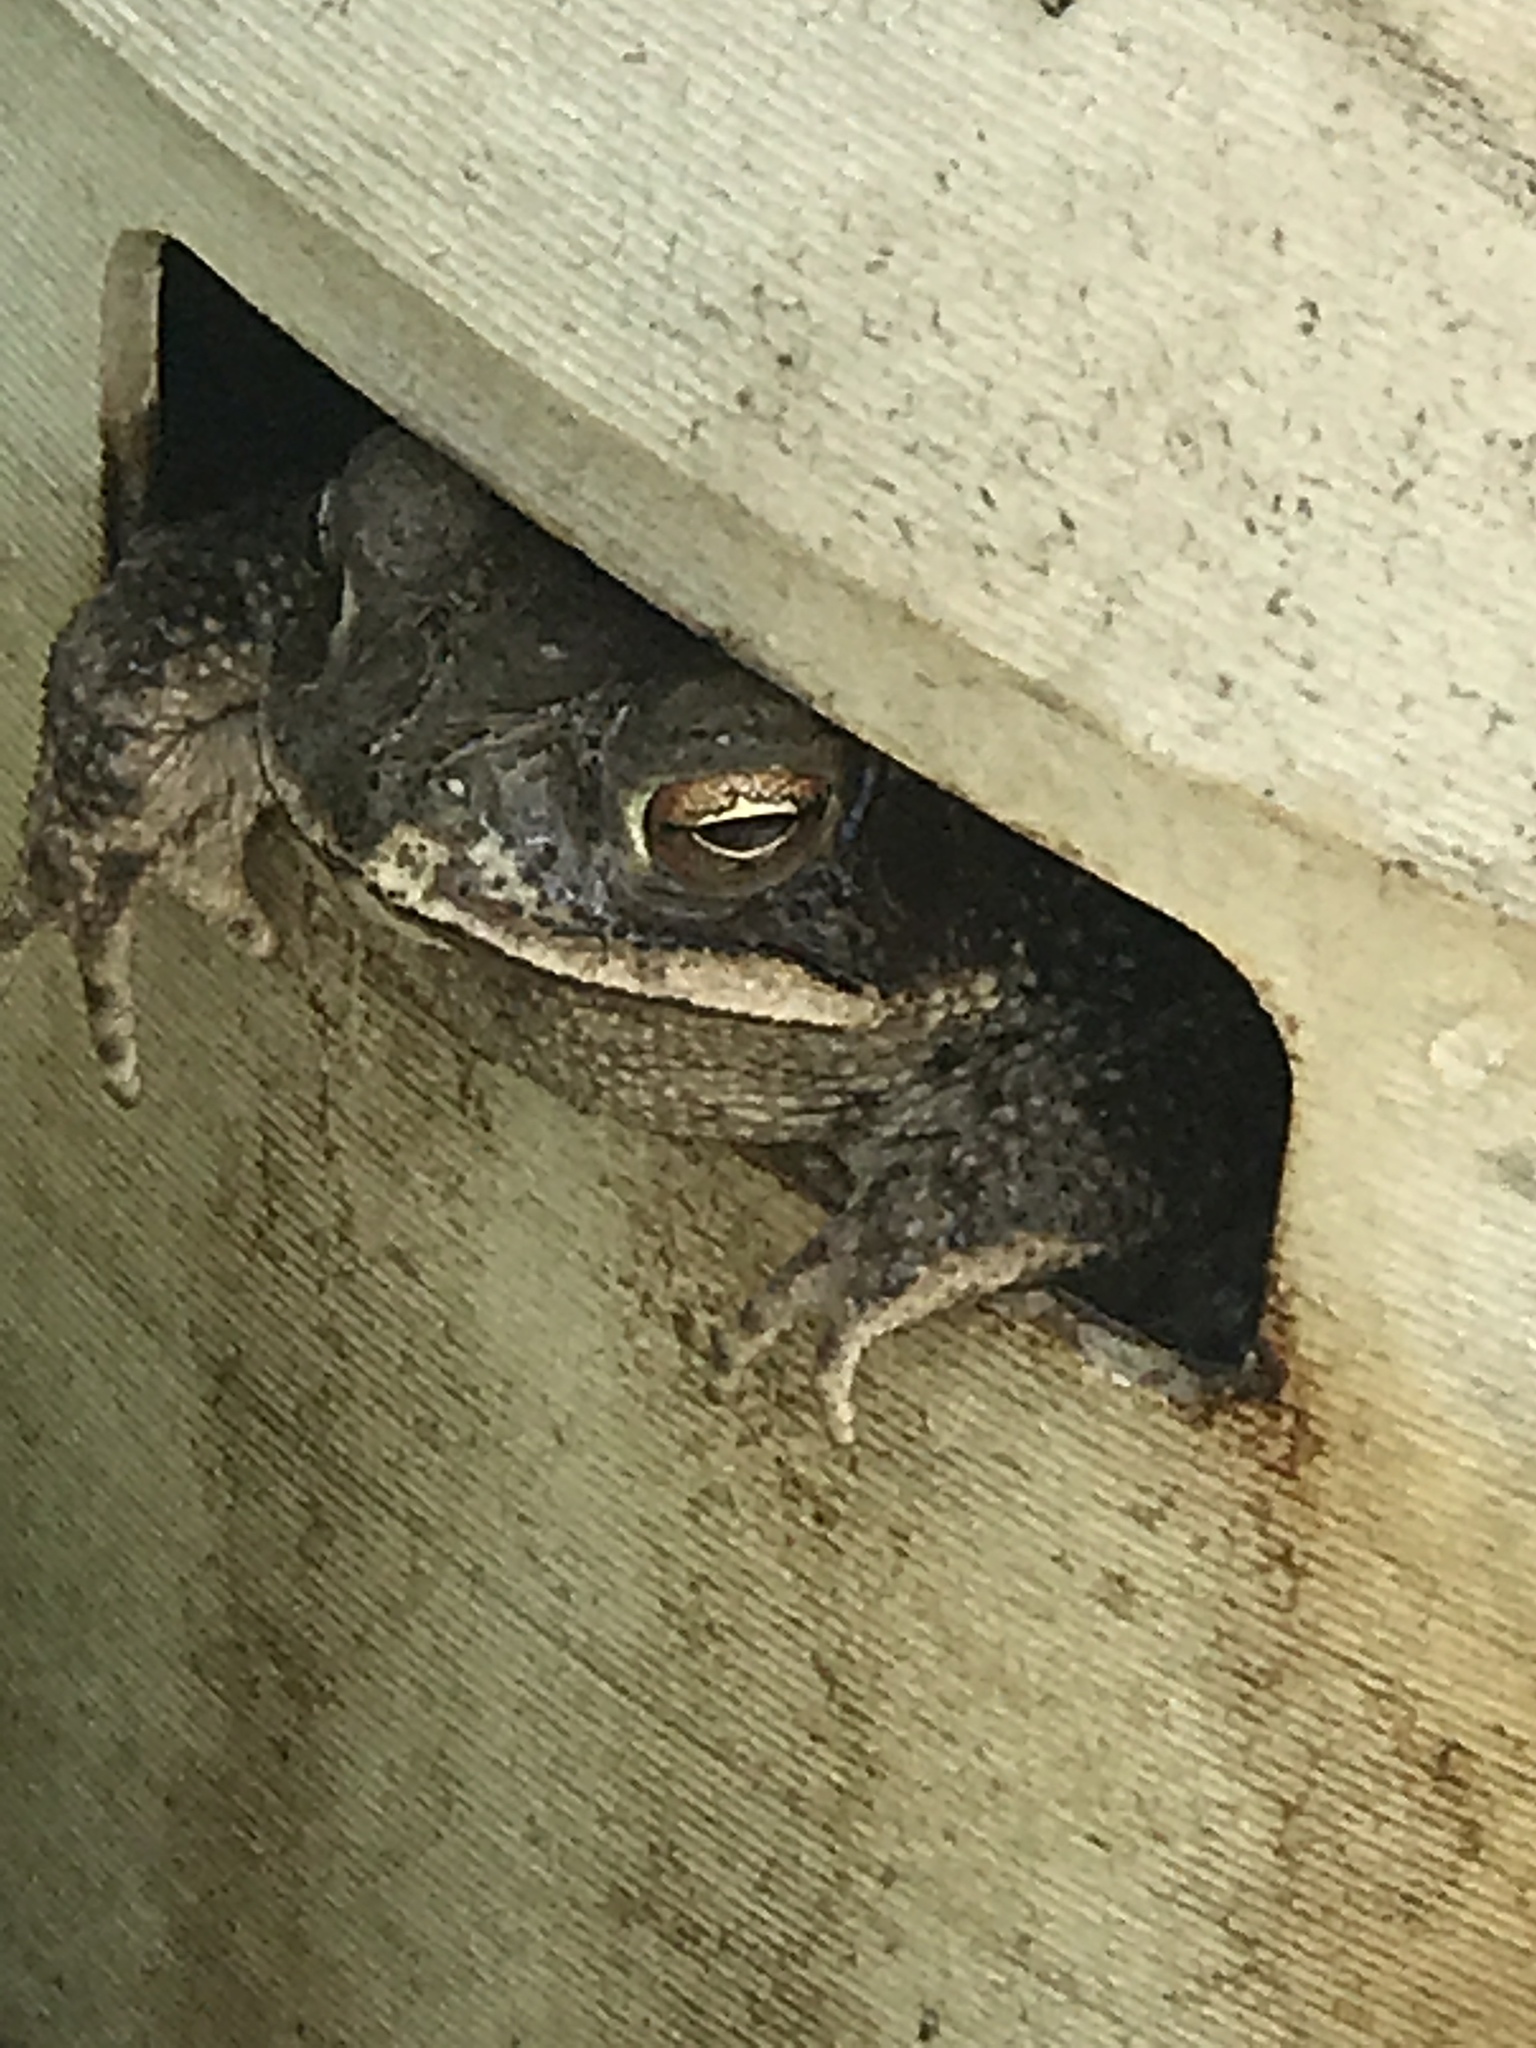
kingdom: Animalia
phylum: Chordata
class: Amphibia
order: Anura
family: Bufonidae
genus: Incilius
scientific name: Incilius nebulifer
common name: Gulf coast toad
